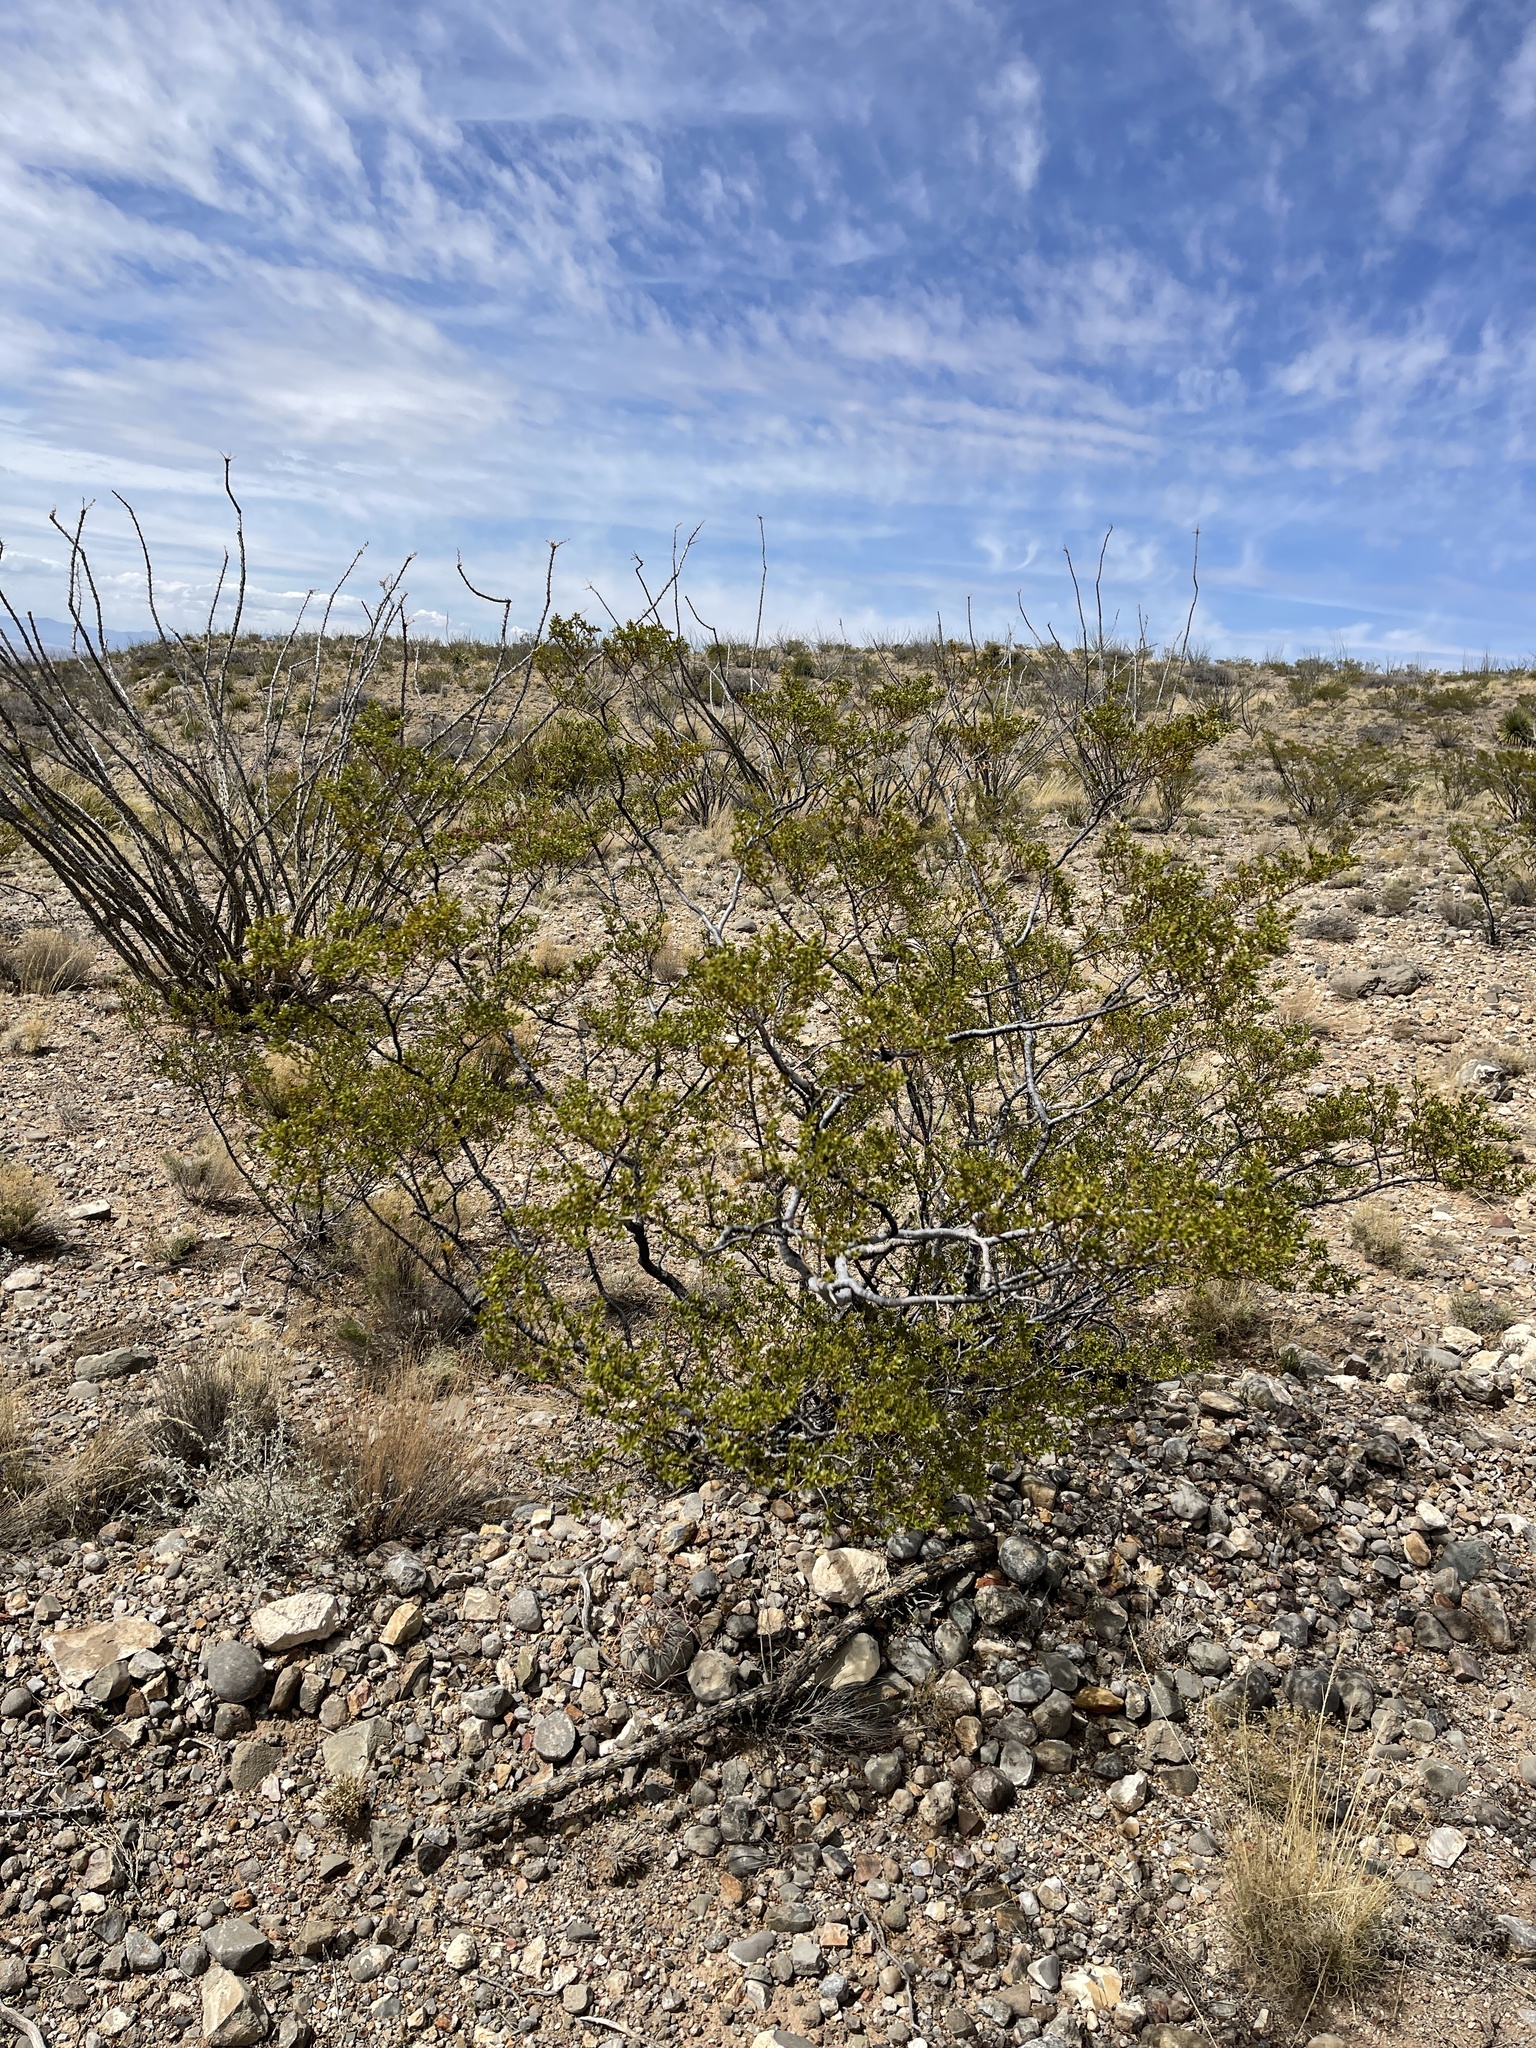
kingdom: Plantae
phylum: Tracheophyta
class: Magnoliopsida
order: Zygophyllales
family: Zygophyllaceae
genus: Larrea
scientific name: Larrea tridentata
